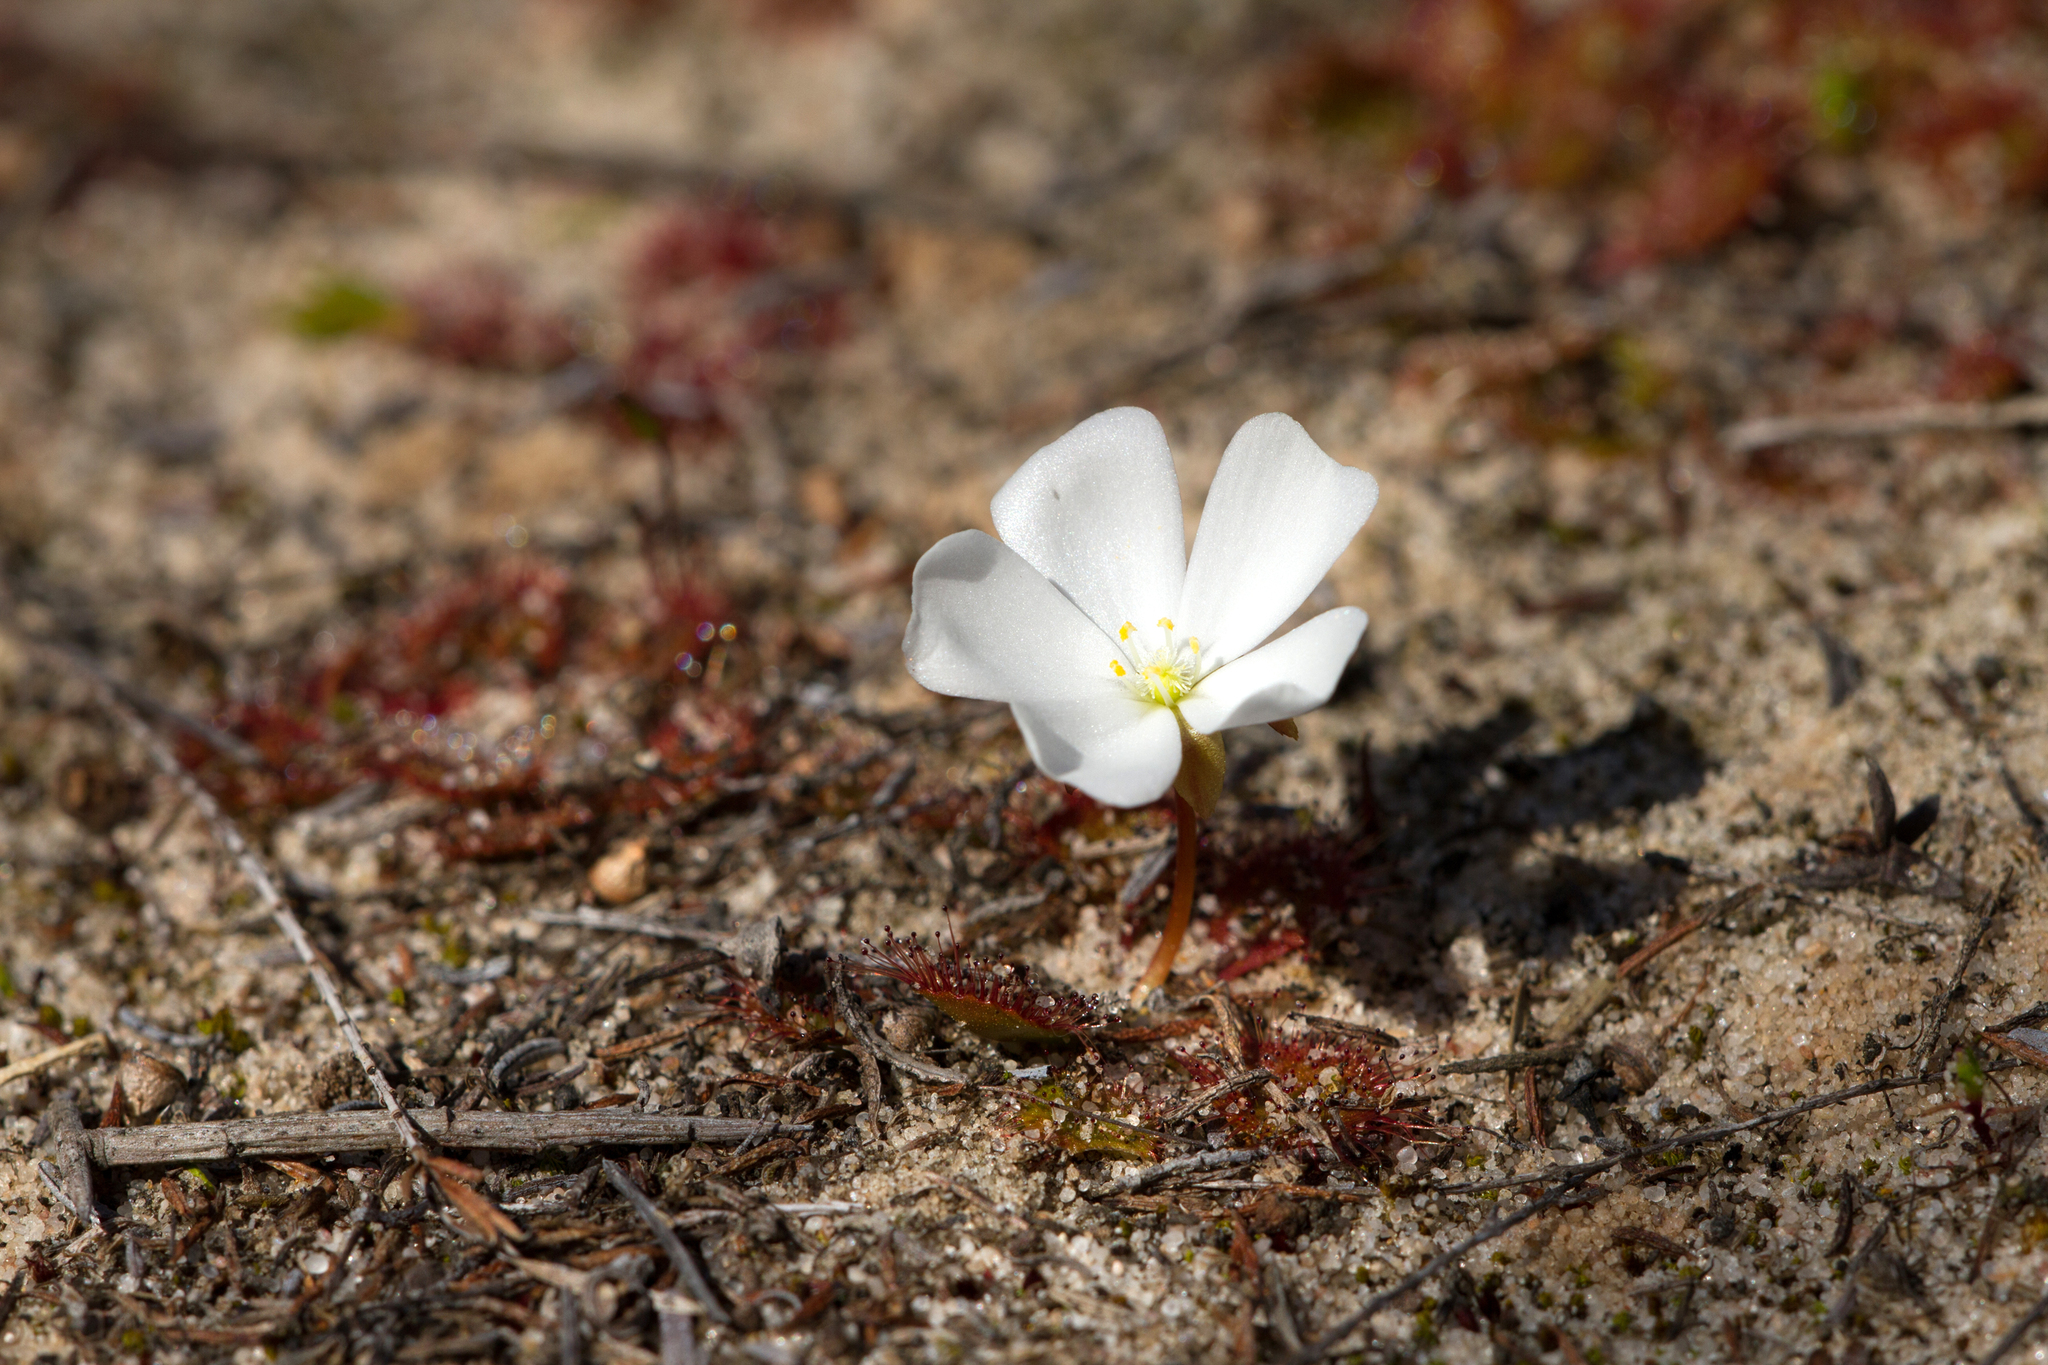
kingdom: Plantae
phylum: Tracheophyta
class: Magnoliopsida
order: Caryophyllales
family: Droseraceae
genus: Drosera
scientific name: Drosera aberrans
